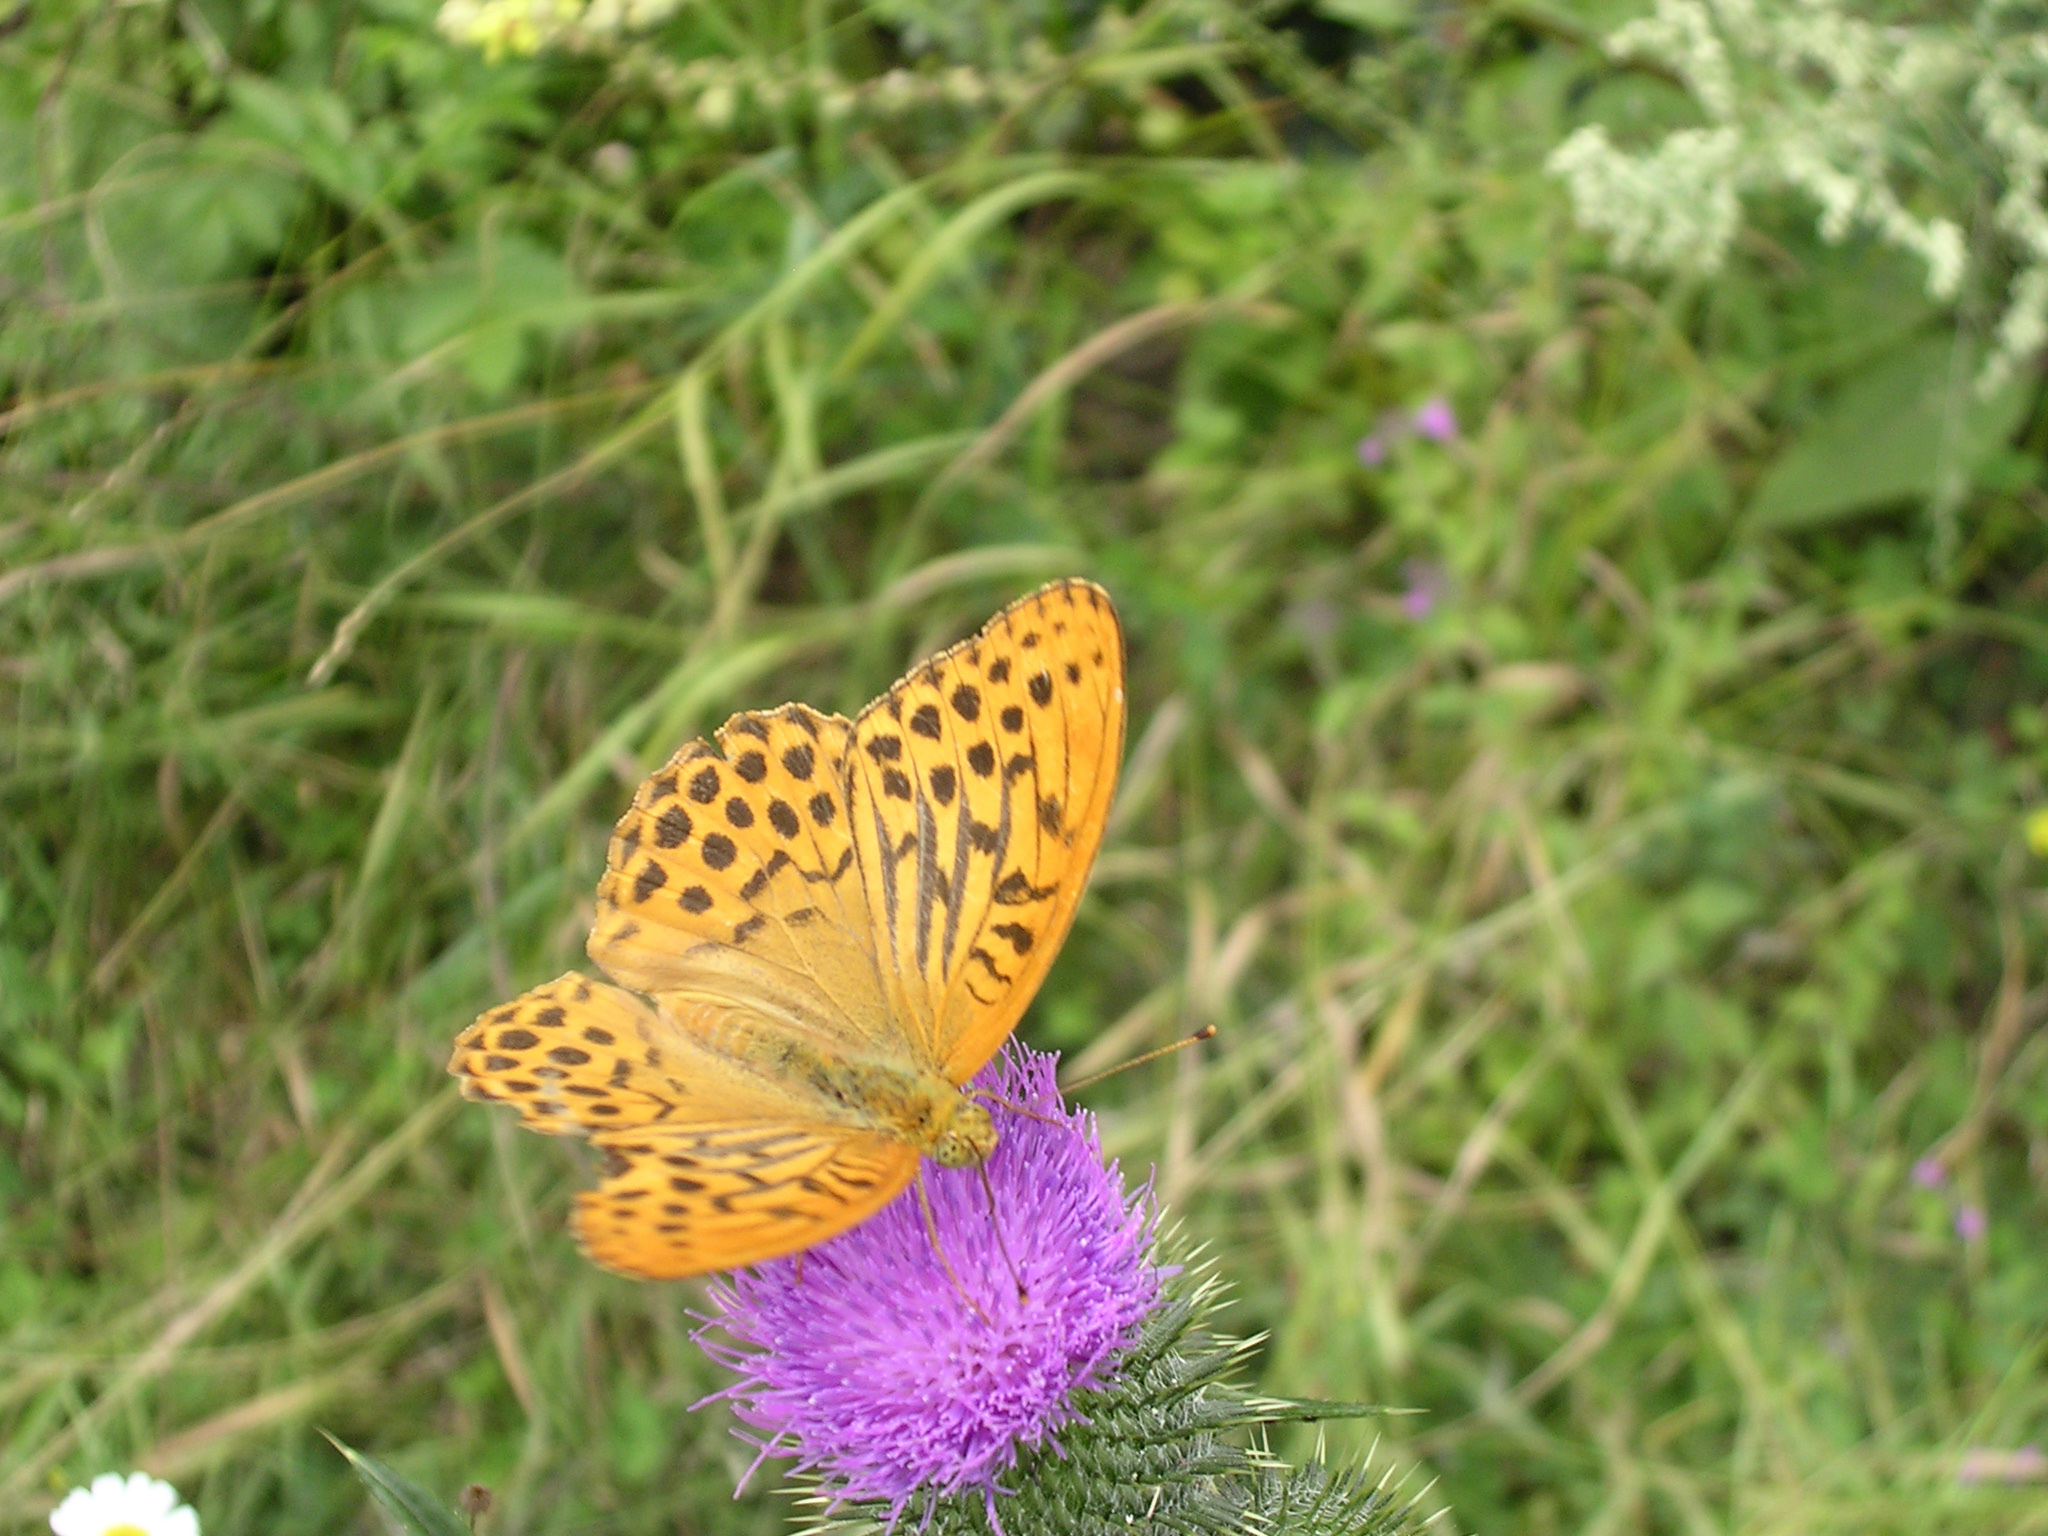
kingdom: Animalia
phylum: Arthropoda
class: Insecta
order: Lepidoptera
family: Nymphalidae
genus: Argynnis
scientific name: Argynnis paphia
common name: Silver-washed fritillary
